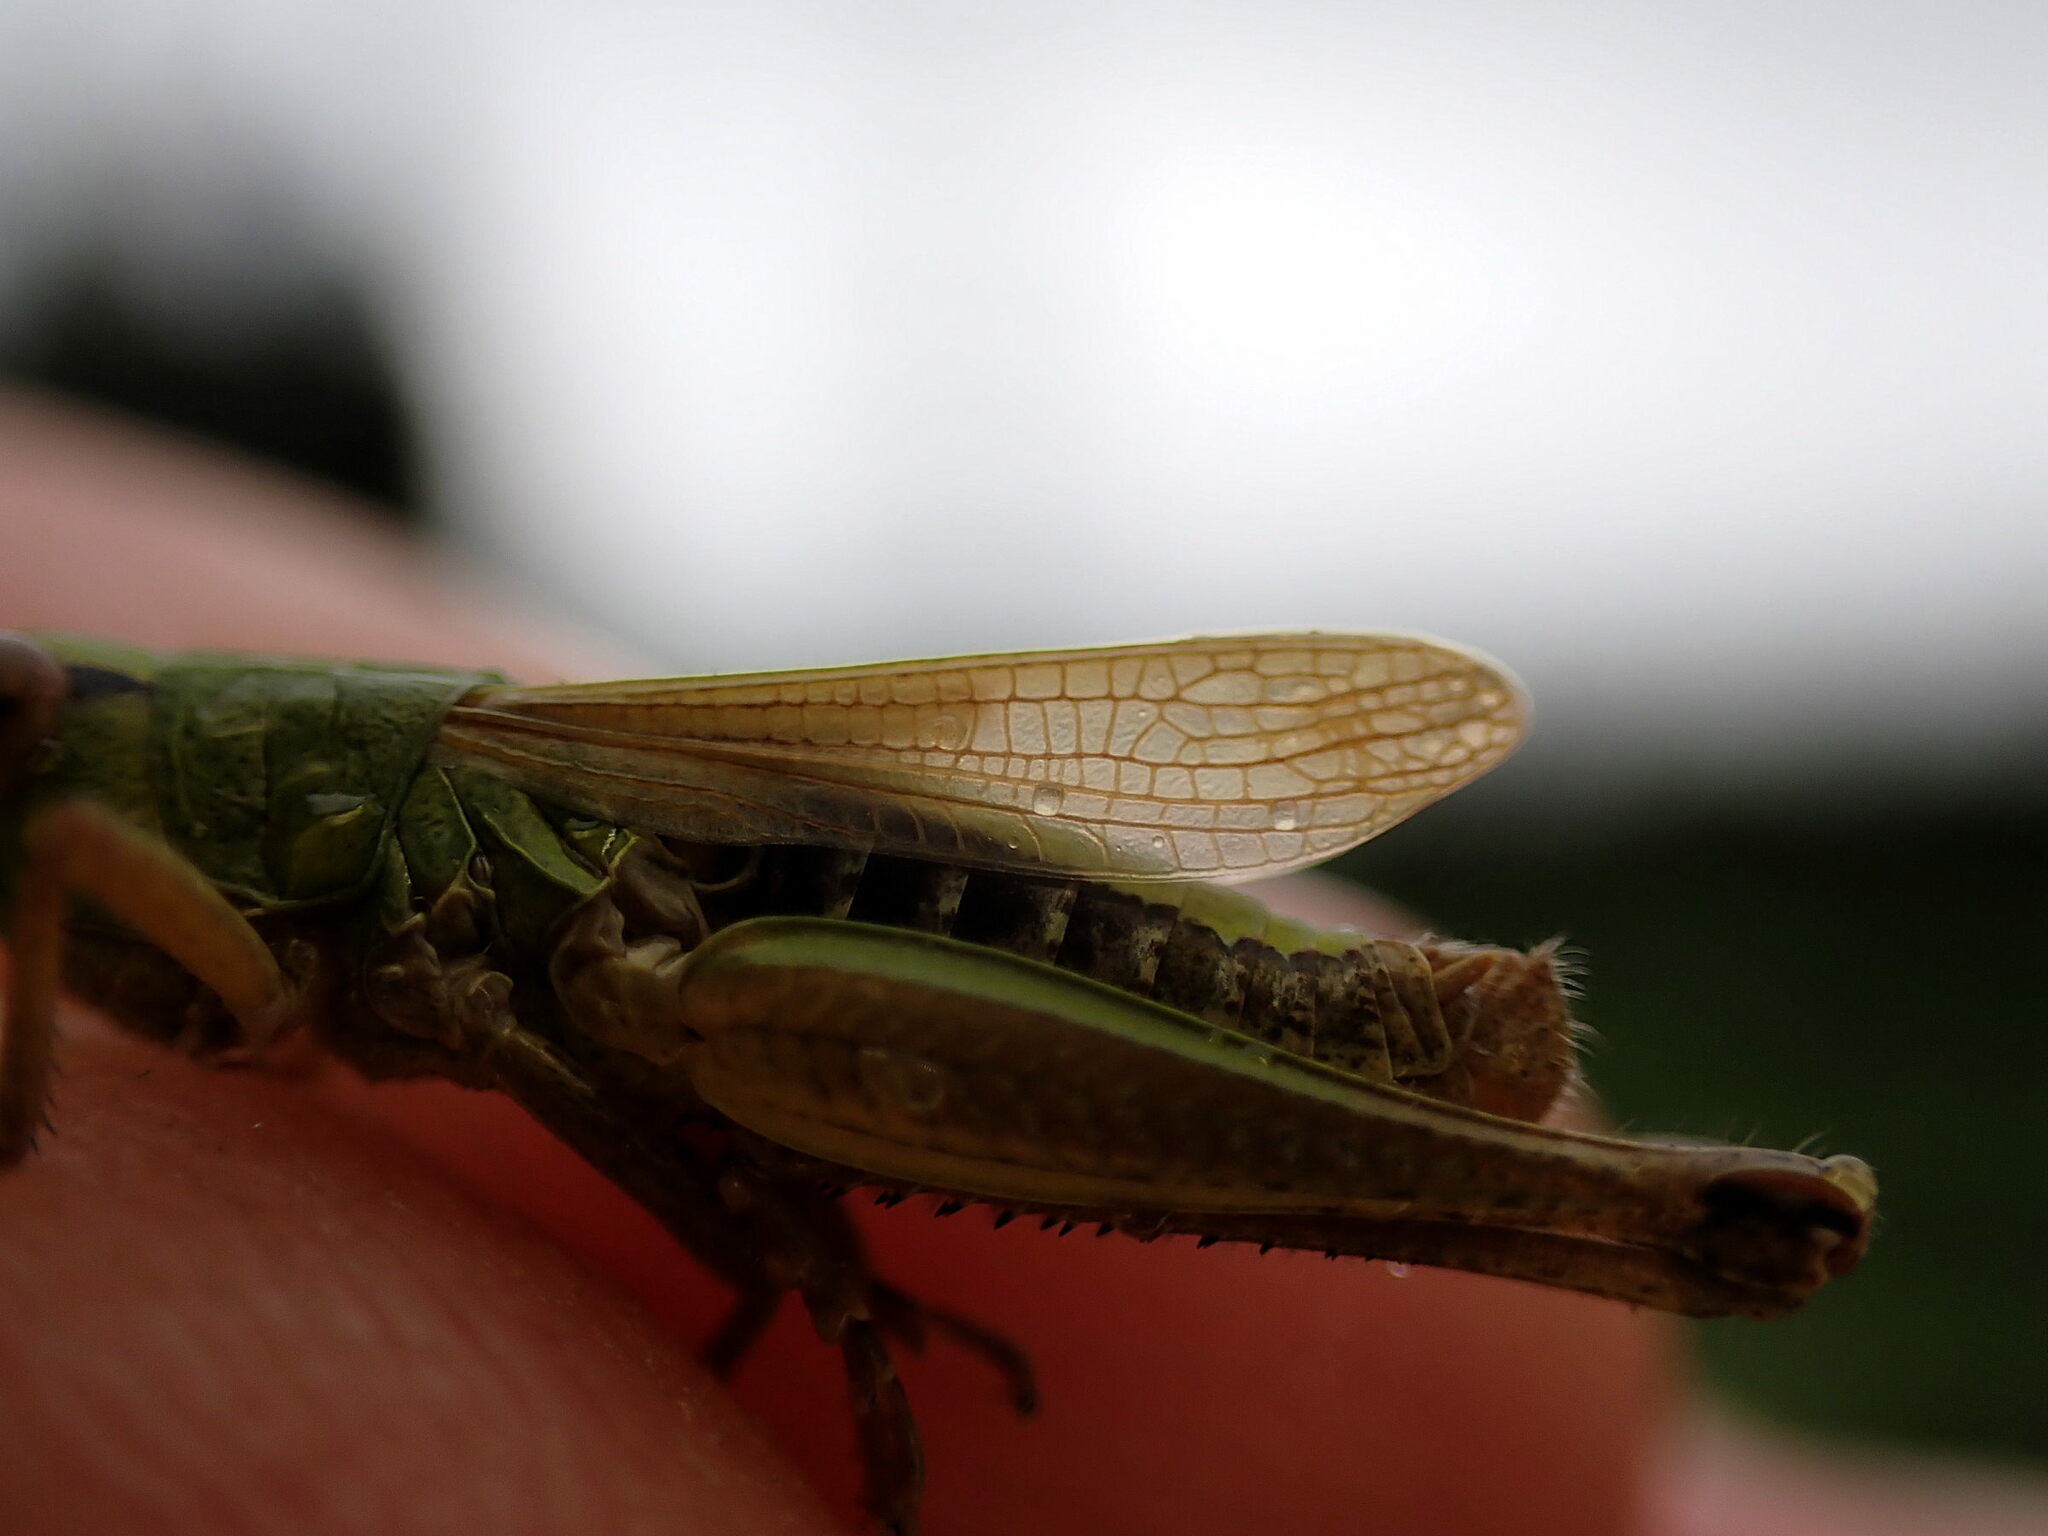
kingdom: Animalia
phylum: Arthropoda
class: Insecta
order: Orthoptera
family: Acrididae
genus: Pseudochorthippus
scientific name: Pseudochorthippus parallelus
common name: Meadow grasshopper
